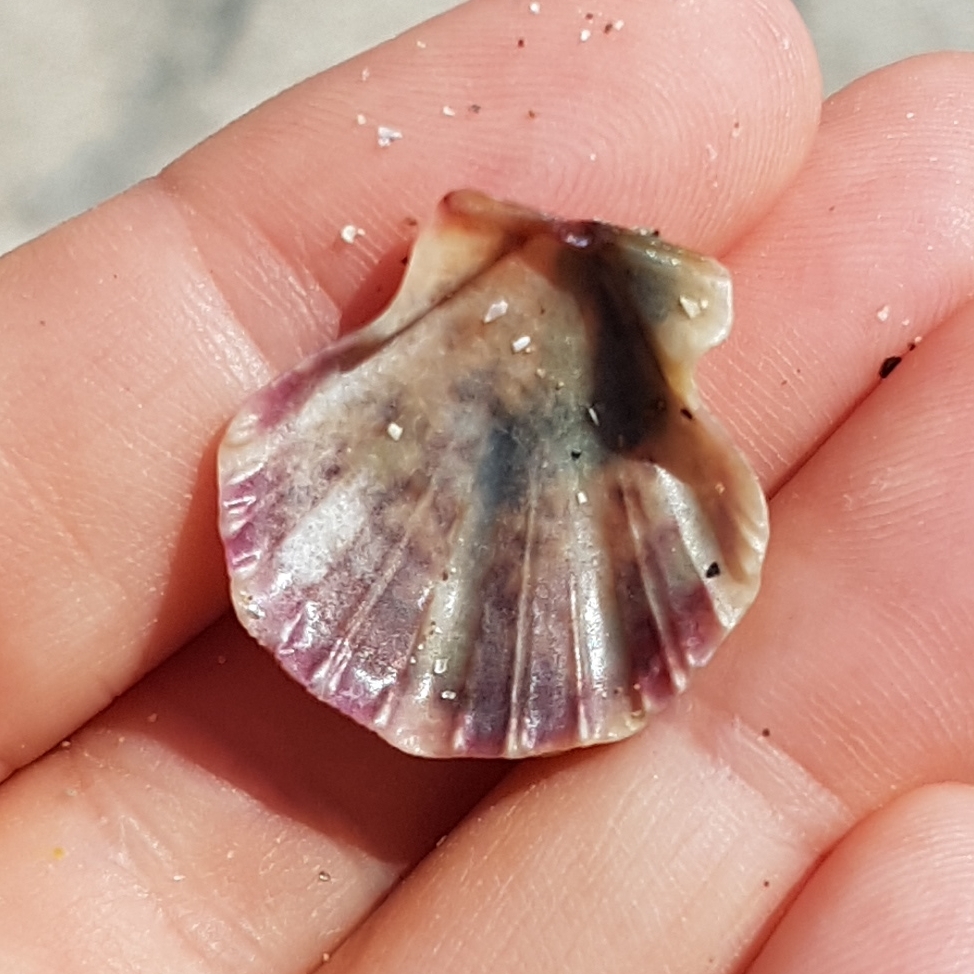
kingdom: Animalia
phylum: Mollusca
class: Bivalvia
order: Pectinida
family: Pectinidae
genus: Flexopecten
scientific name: Flexopecten flexuosus
